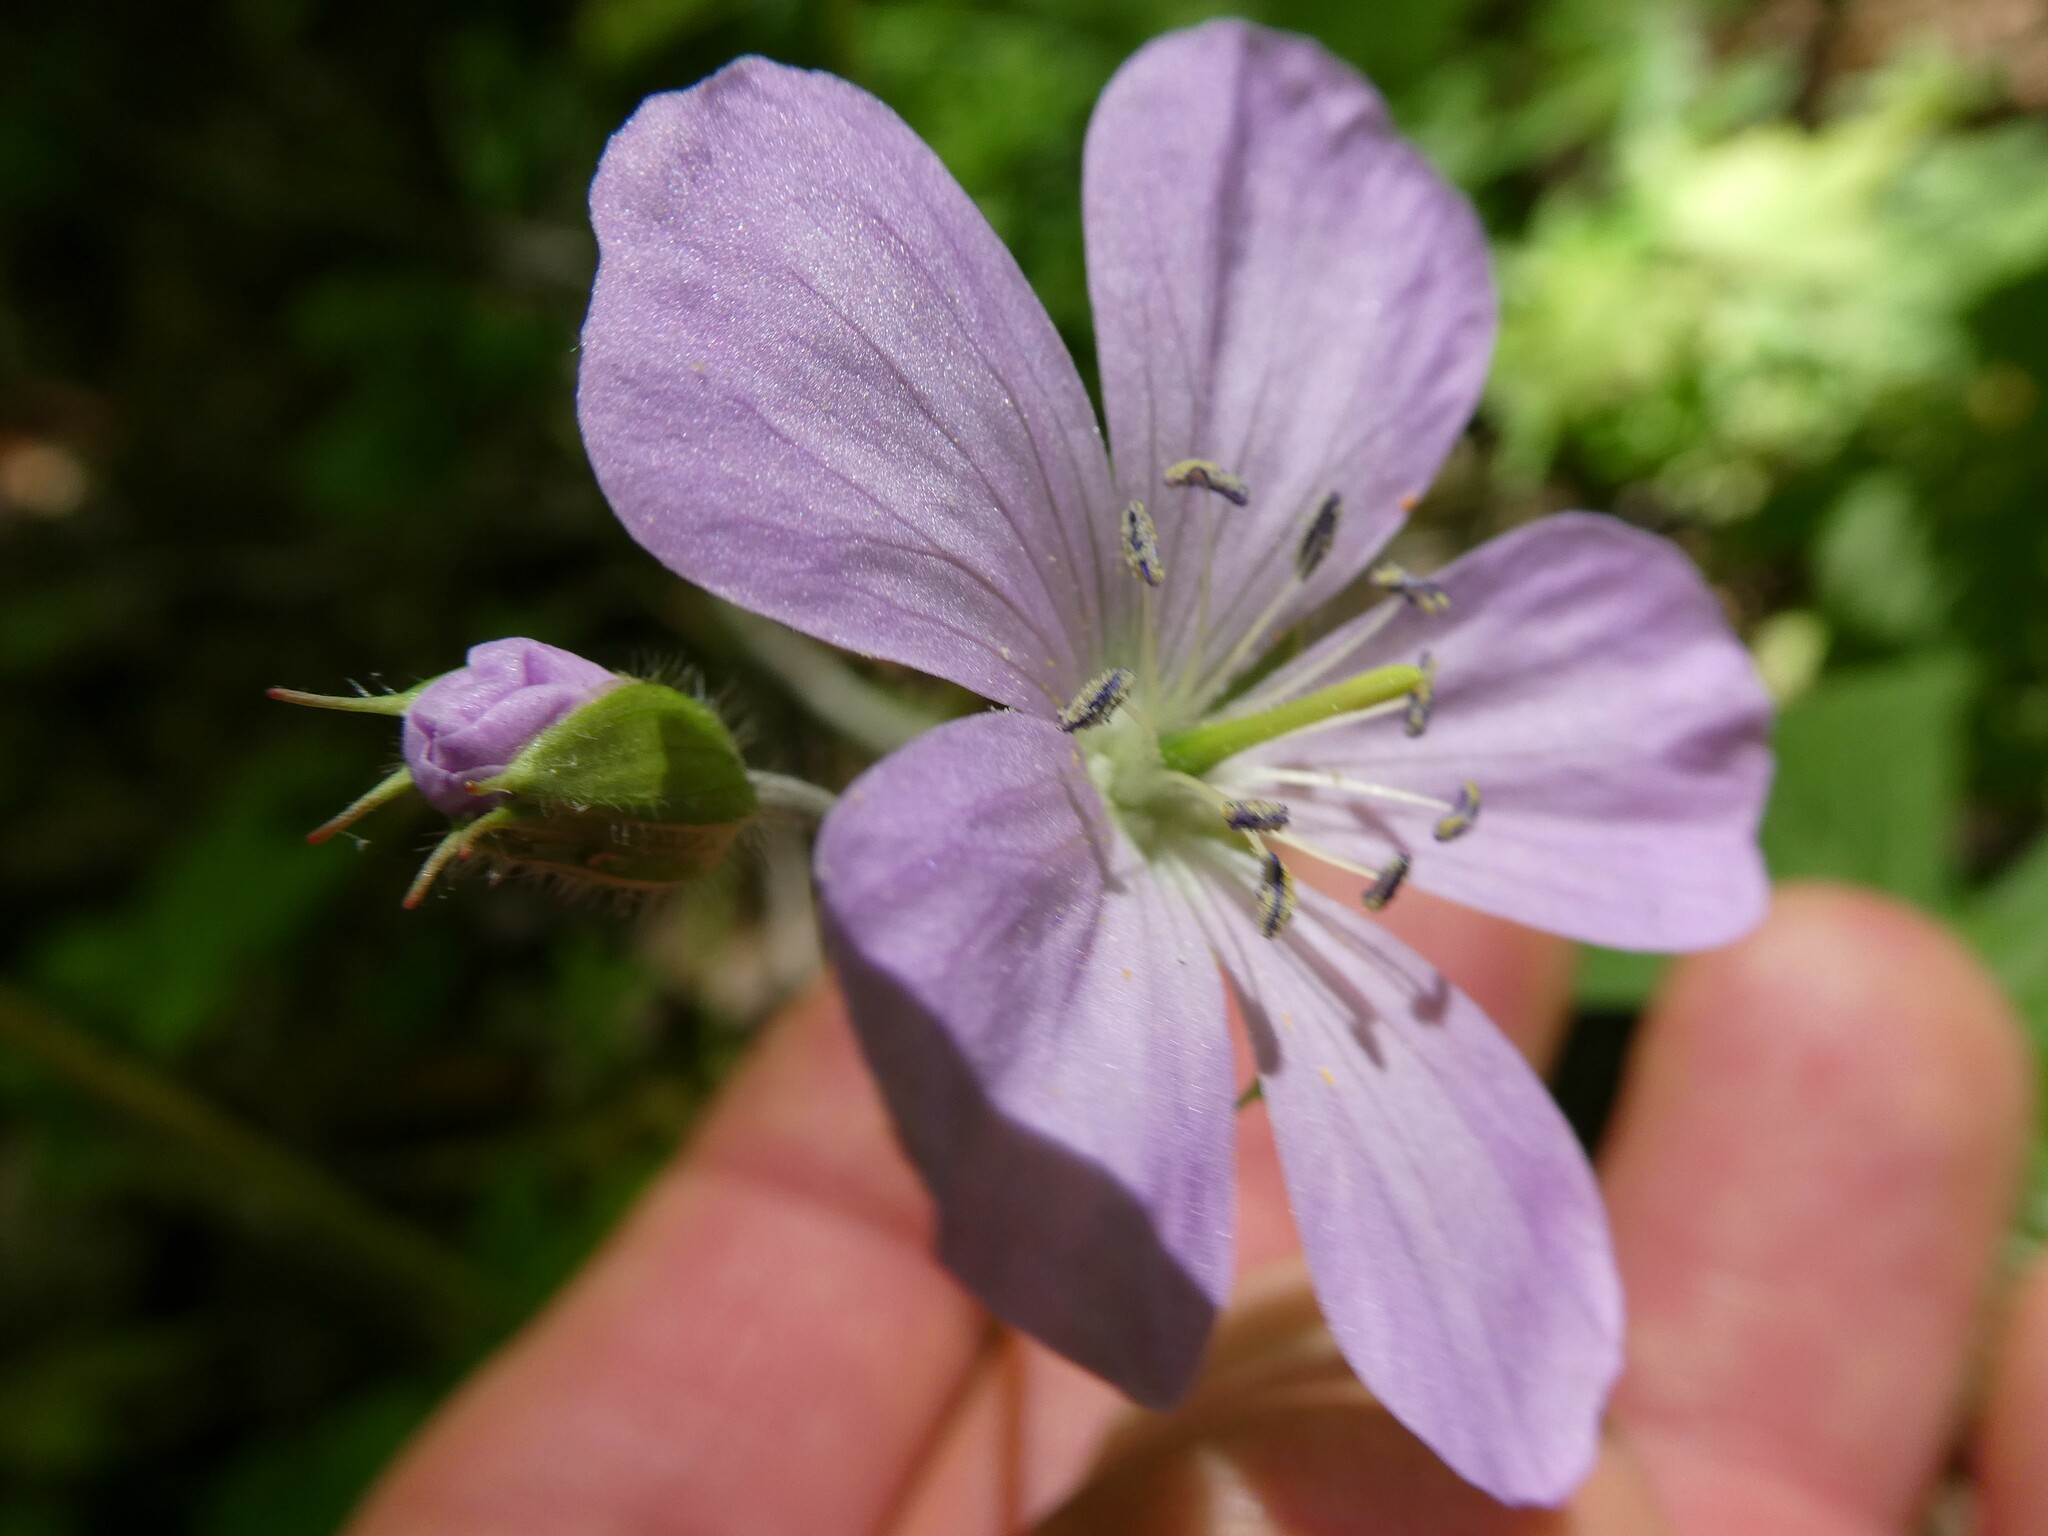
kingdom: Plantae
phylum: Tracheophyta
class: Magnoliopsida
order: Geraniales
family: Geraniaceae
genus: Geranium
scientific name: Geranium maculatum
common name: Spotted geranium
